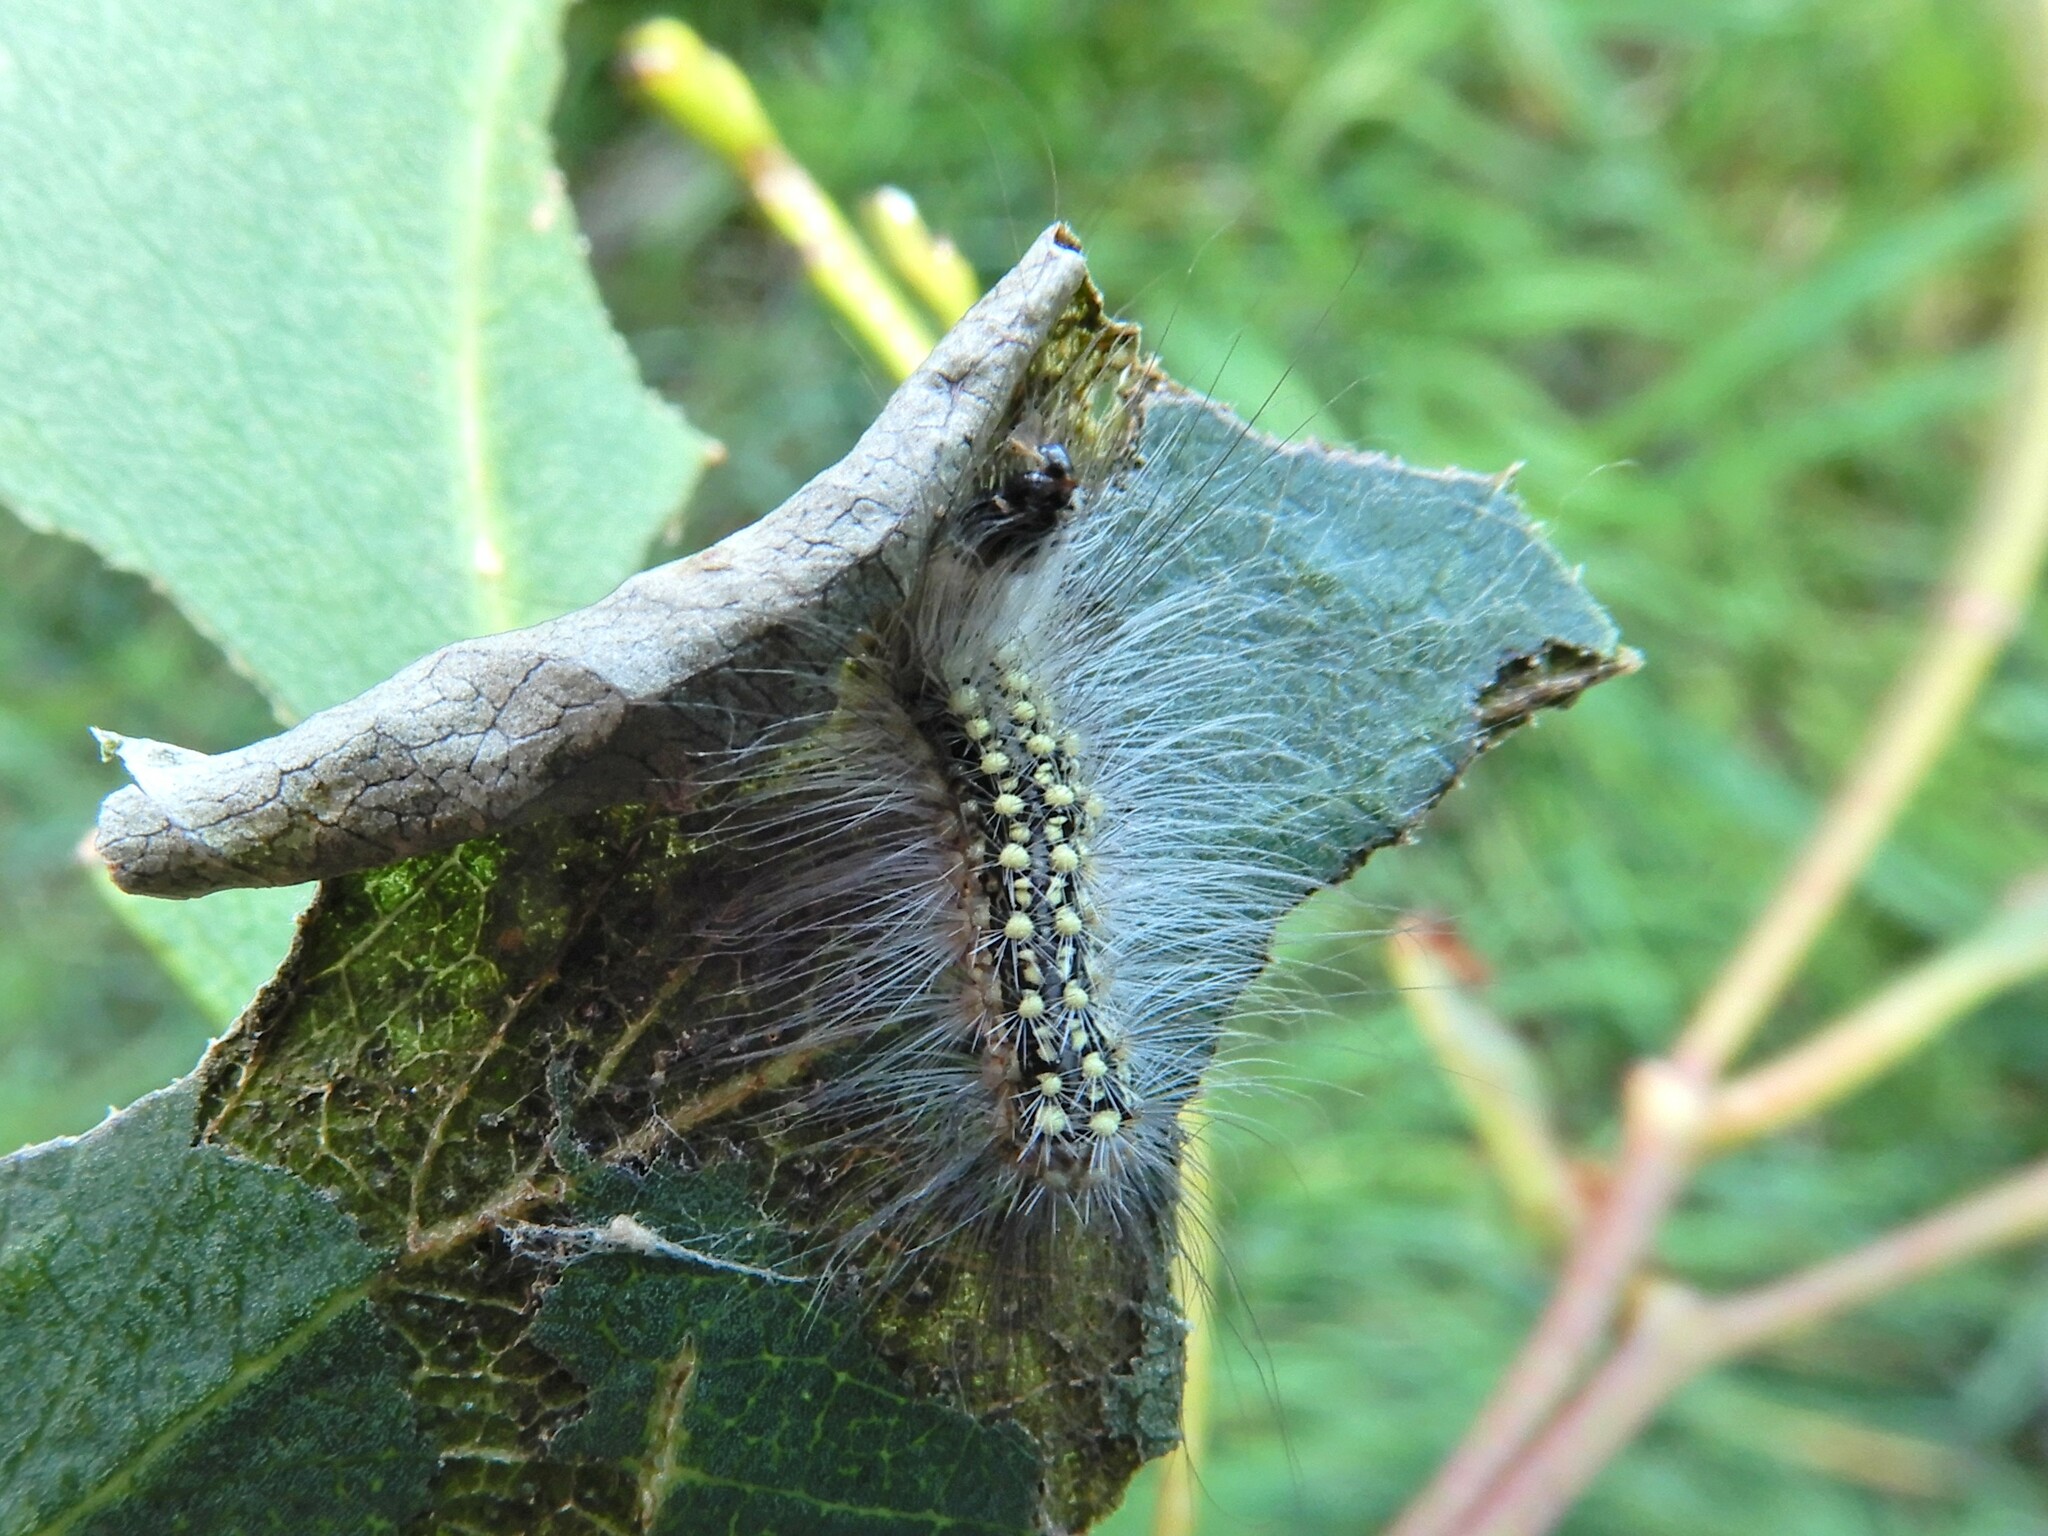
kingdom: Animalia
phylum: Arthropoda
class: Insecta
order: Lepidoptera
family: Nolidae
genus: Uraba
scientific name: Uraba lugens
